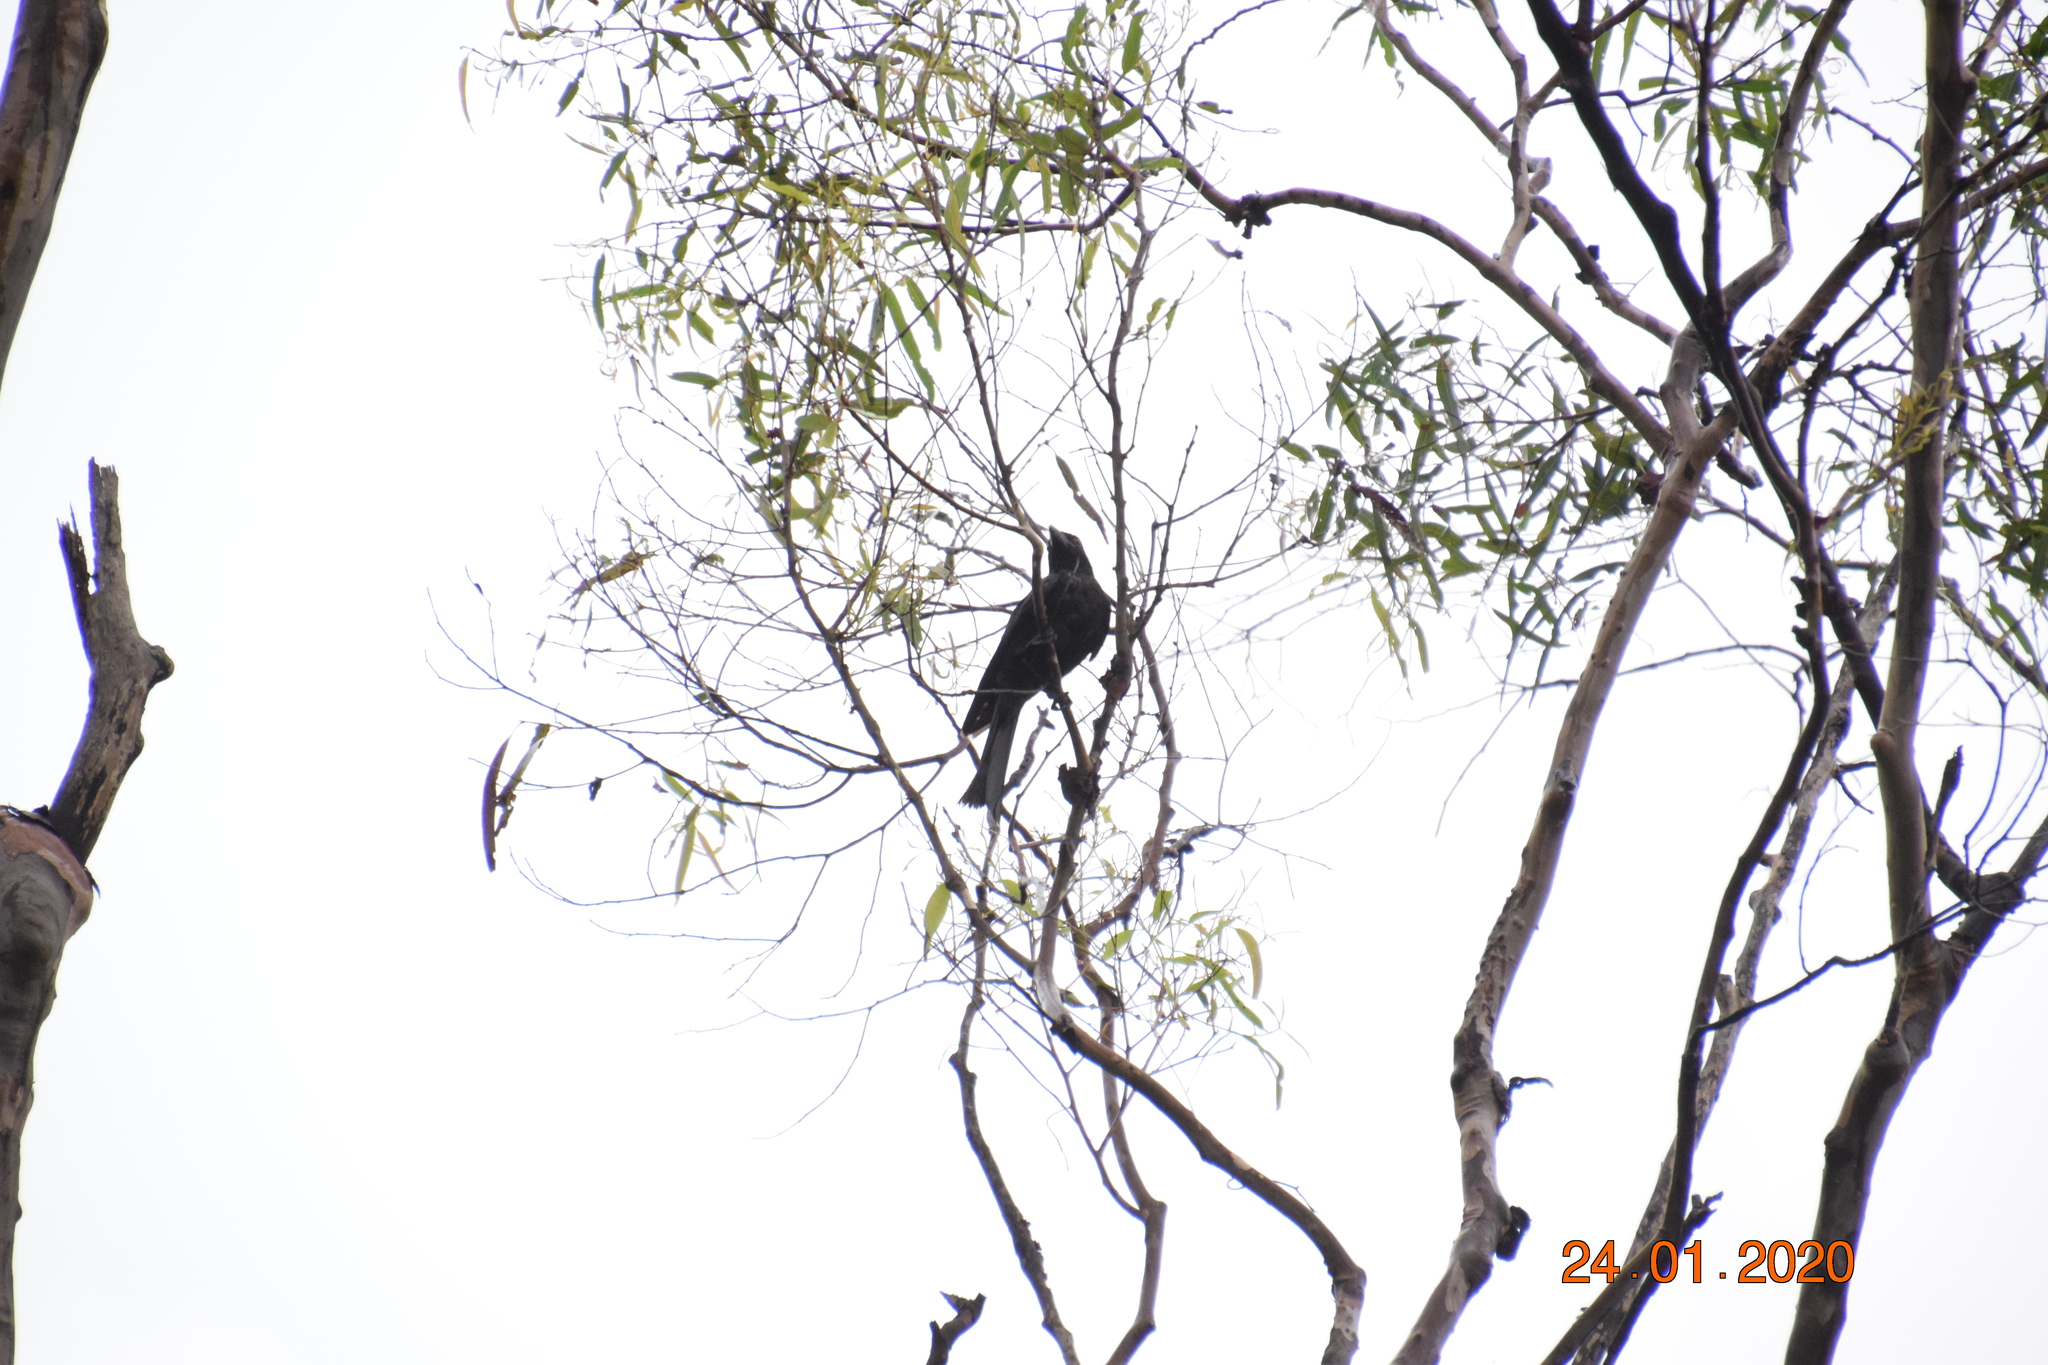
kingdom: Animalia
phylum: Chordata
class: Aves
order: Passeriformes
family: Dicruridae
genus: Dicrurus
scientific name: Dicrurus bracteatus
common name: Spangled drongo
